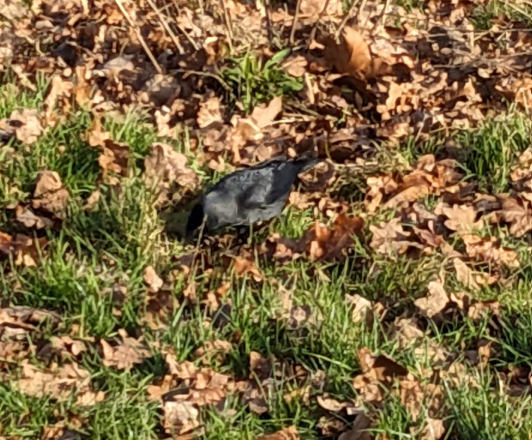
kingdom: Animalia
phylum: Chordata
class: Aves
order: Passeriformes
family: Corvidae
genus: Coloeus
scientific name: Coloeus monedula
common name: Western jackdaw
